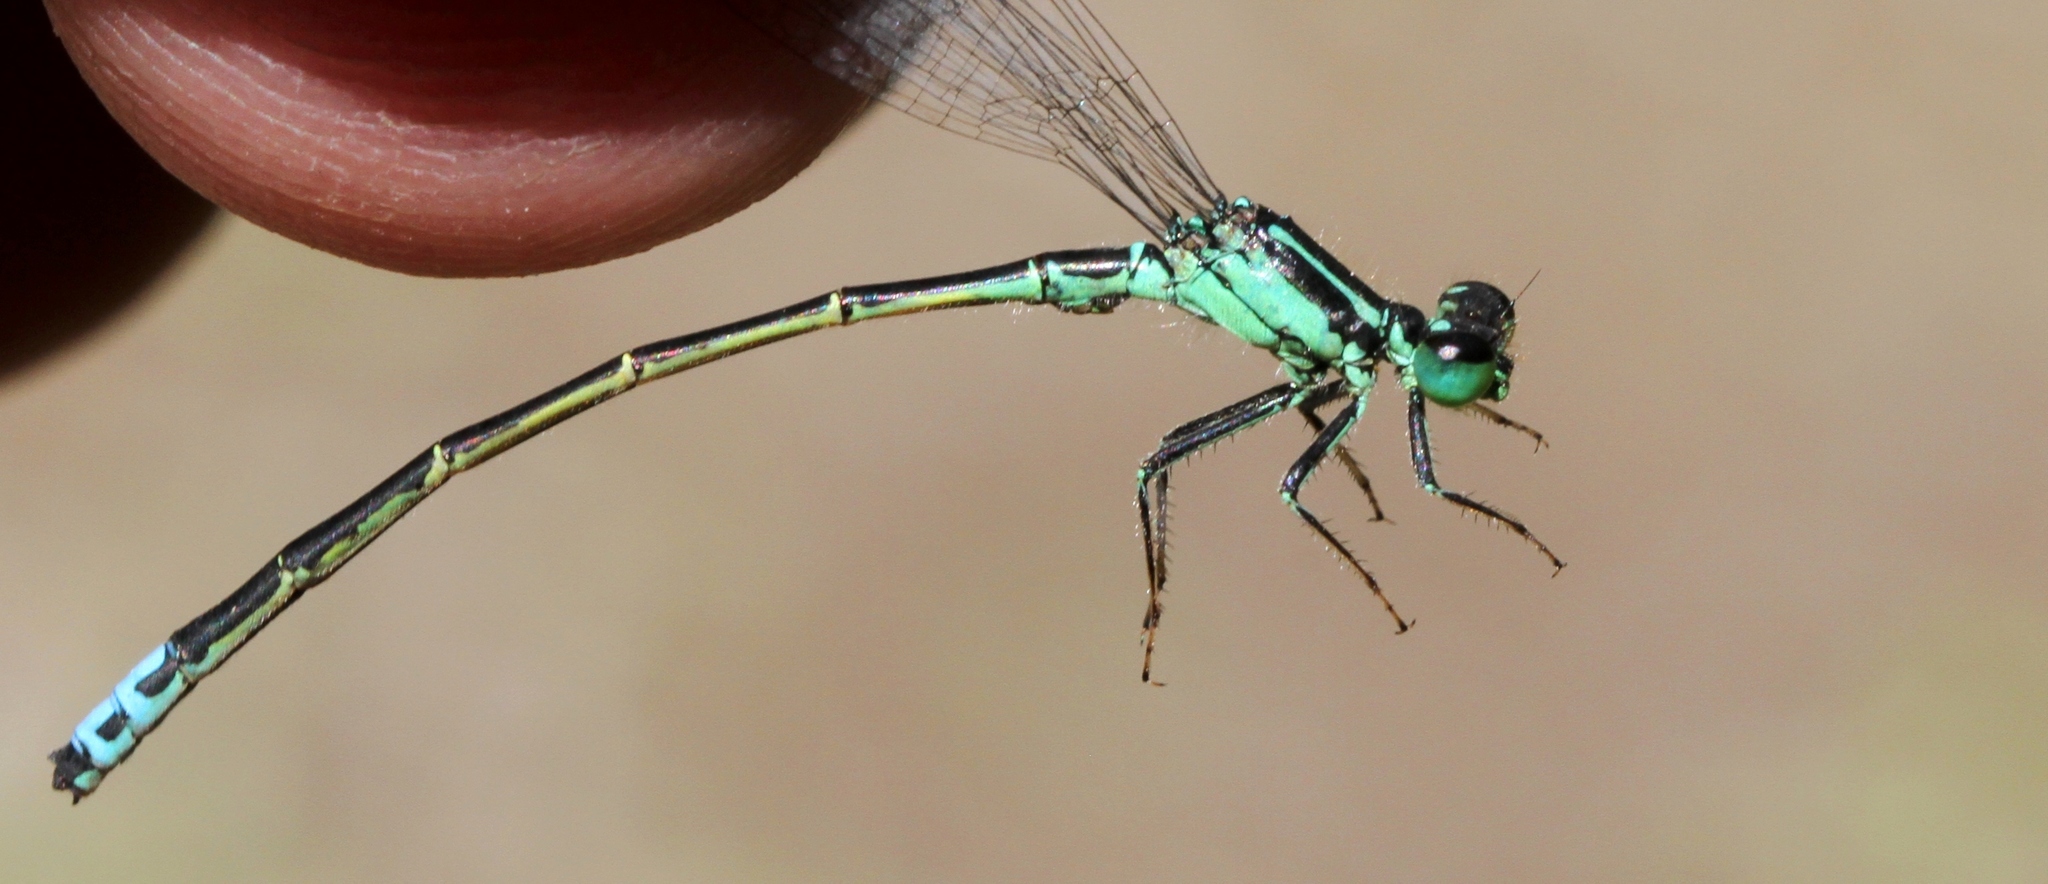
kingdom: Animalia
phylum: Arthropoda
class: Insecta
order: Odonata
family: Coenagrionidae
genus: Ischnura
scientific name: Ischnura verticalis
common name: Eastern forktail
